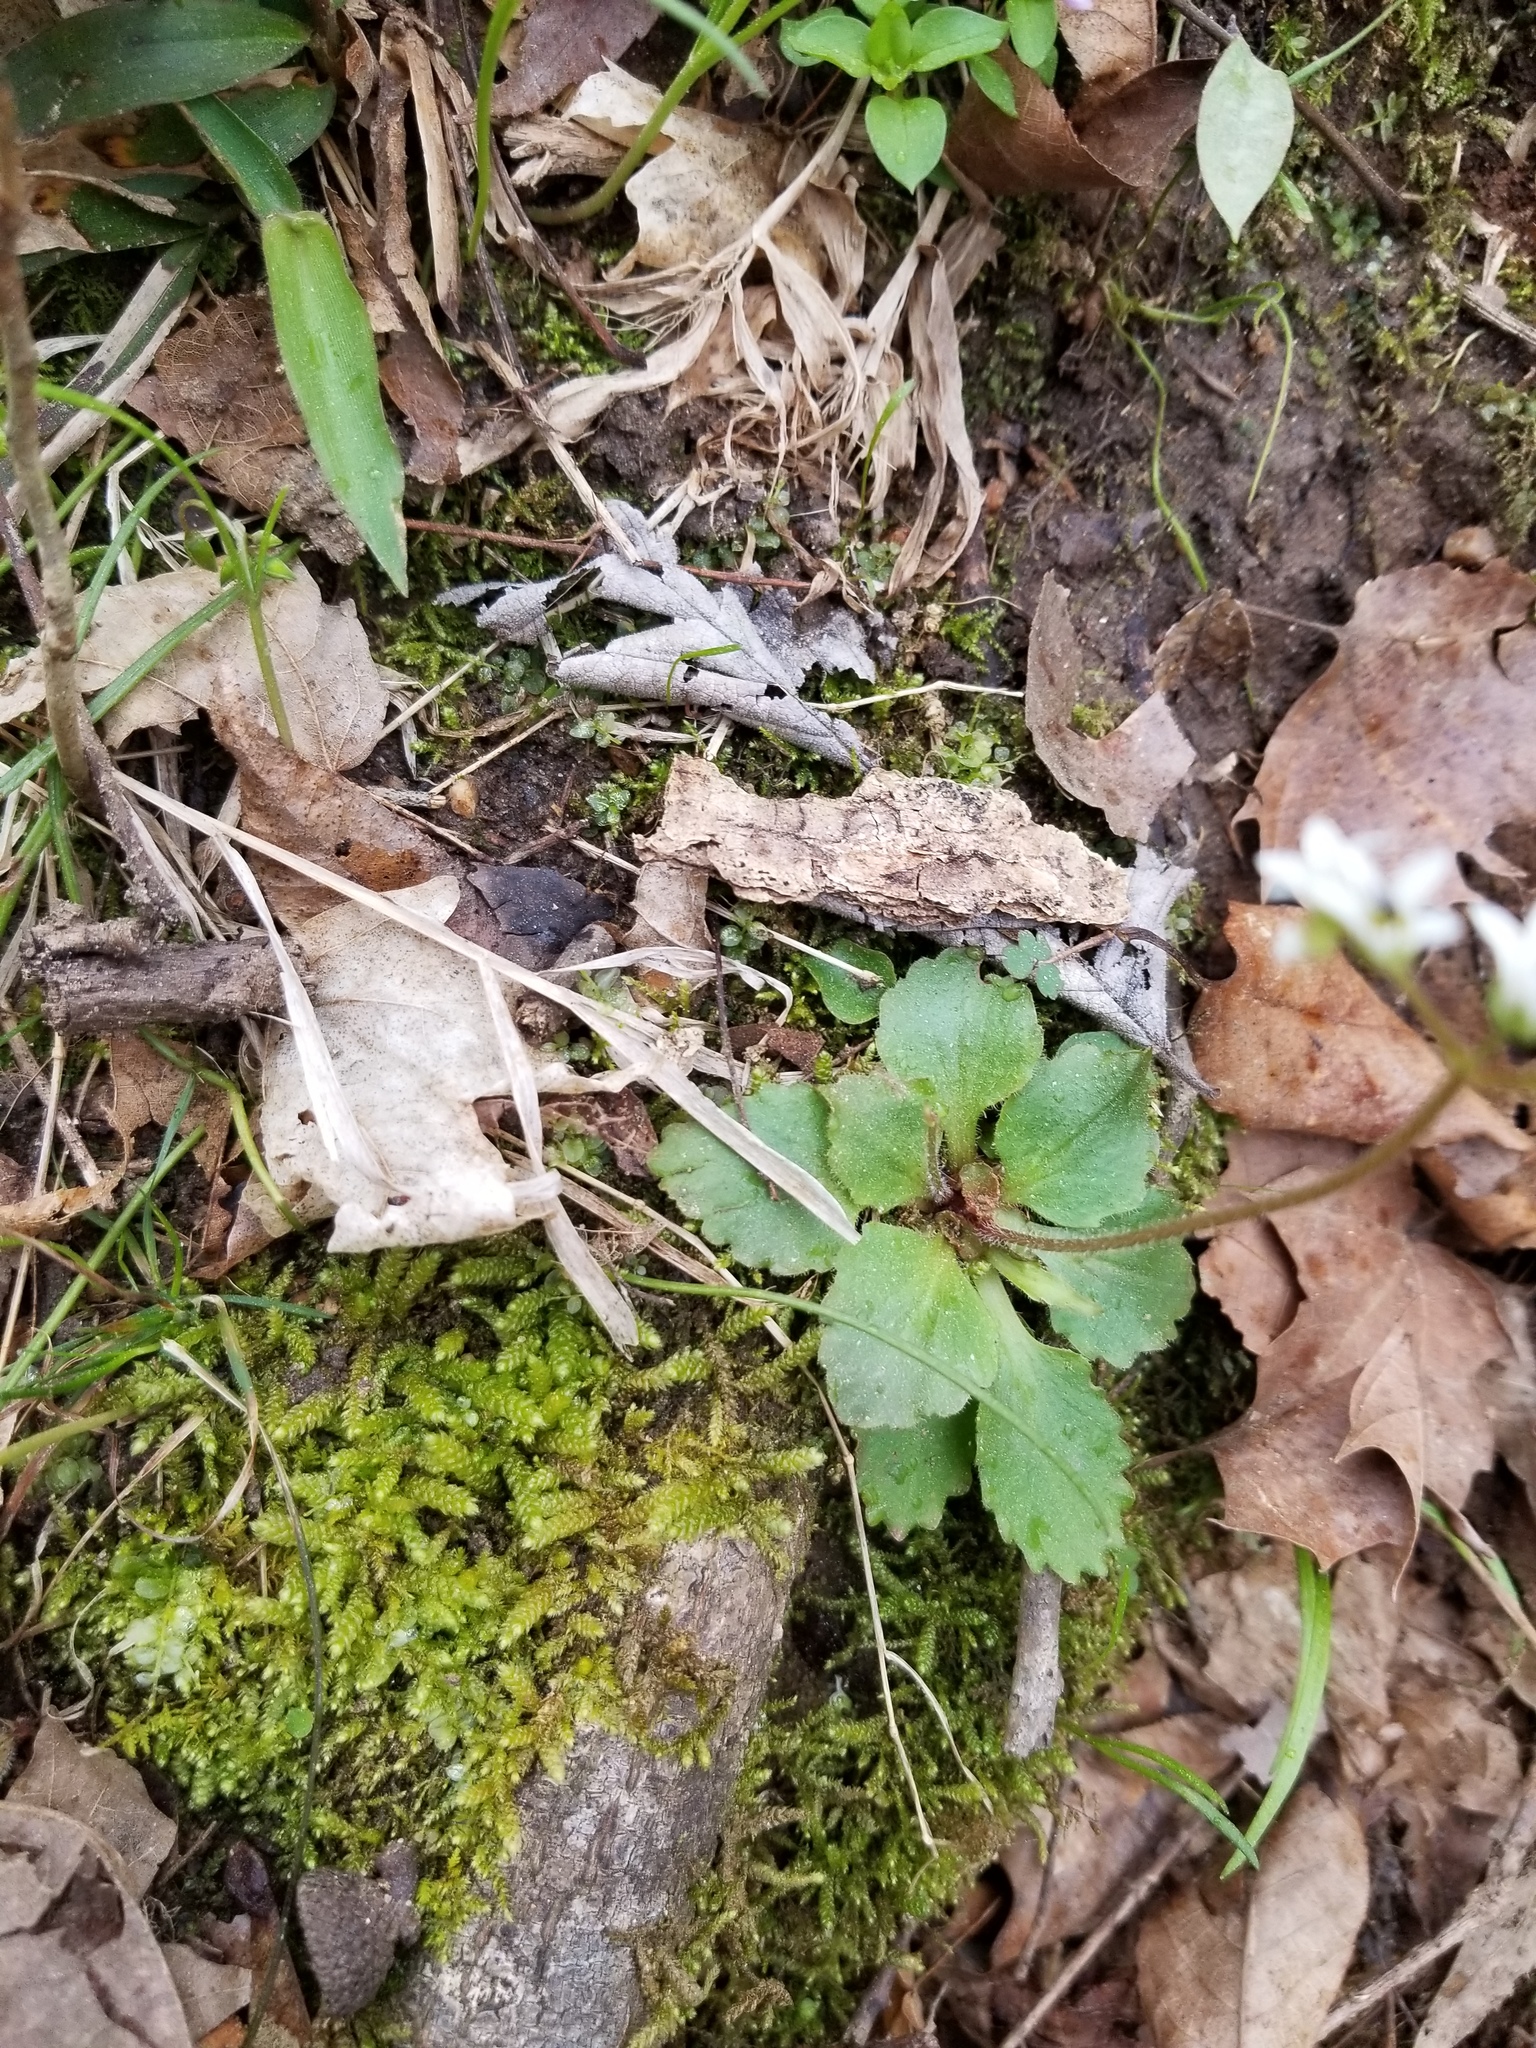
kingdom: Plantae
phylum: Tracheophyta
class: Magnoliopsida
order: Saxifragales
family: Saxifragaceae
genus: Micranthes
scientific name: Micranthes virginiensis
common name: Early saxifrage
